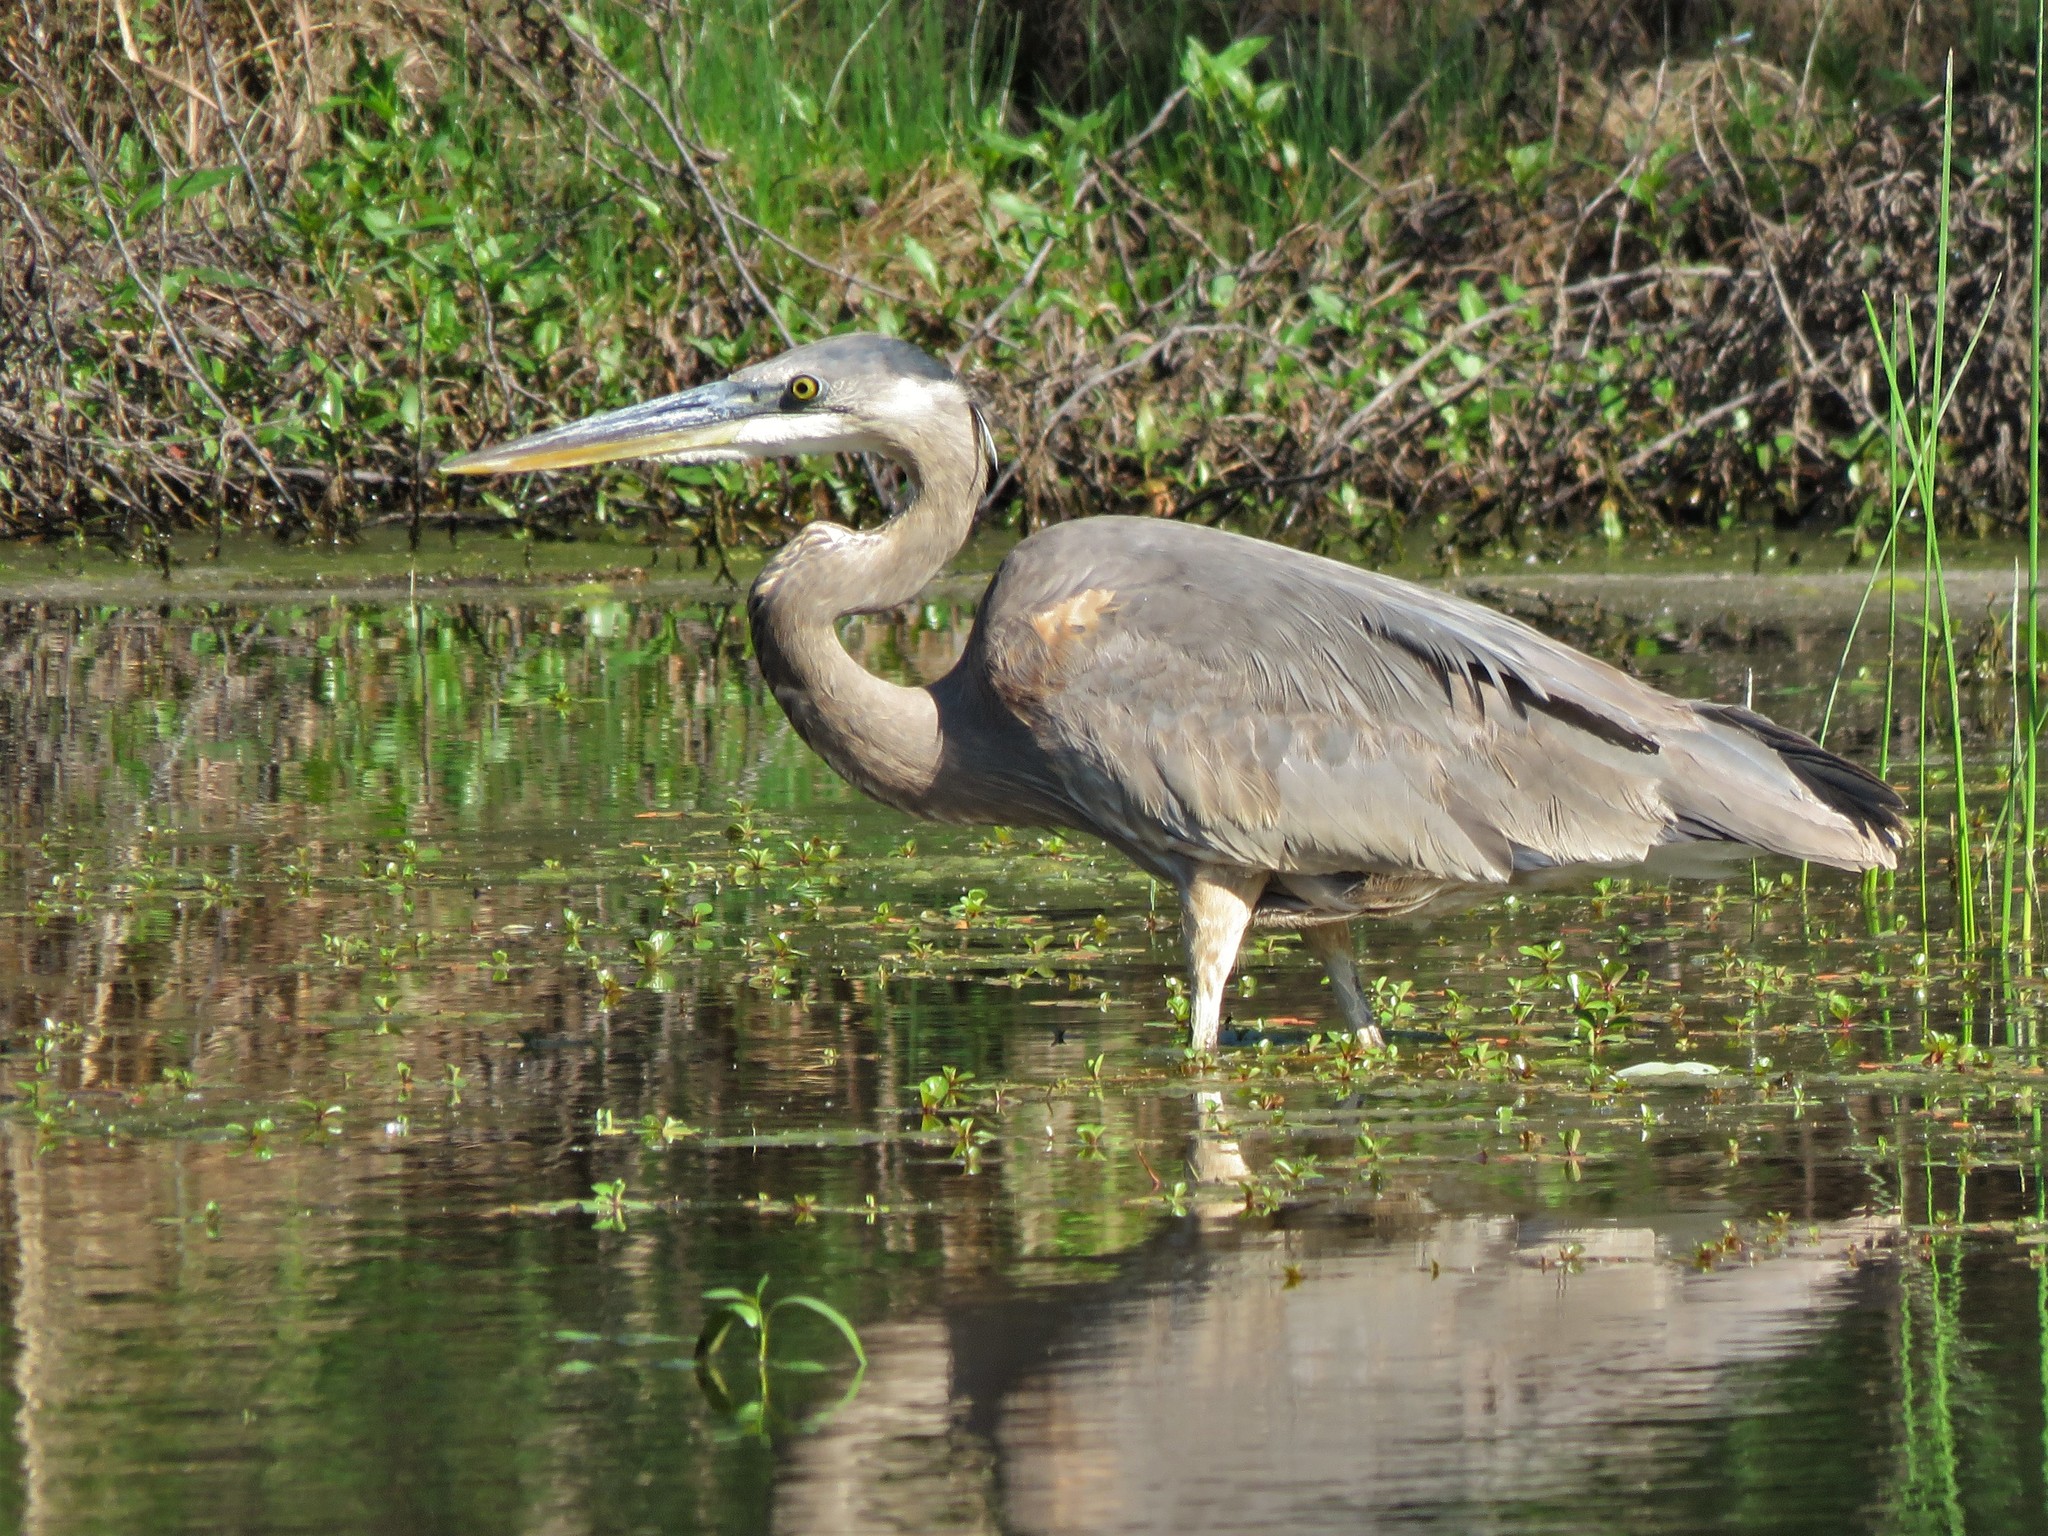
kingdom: Animalia
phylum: Chordata
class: Aves
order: Pelecaniformes
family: Ardeidae
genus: Ardea
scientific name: Ardea herodias
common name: Great blue heron
